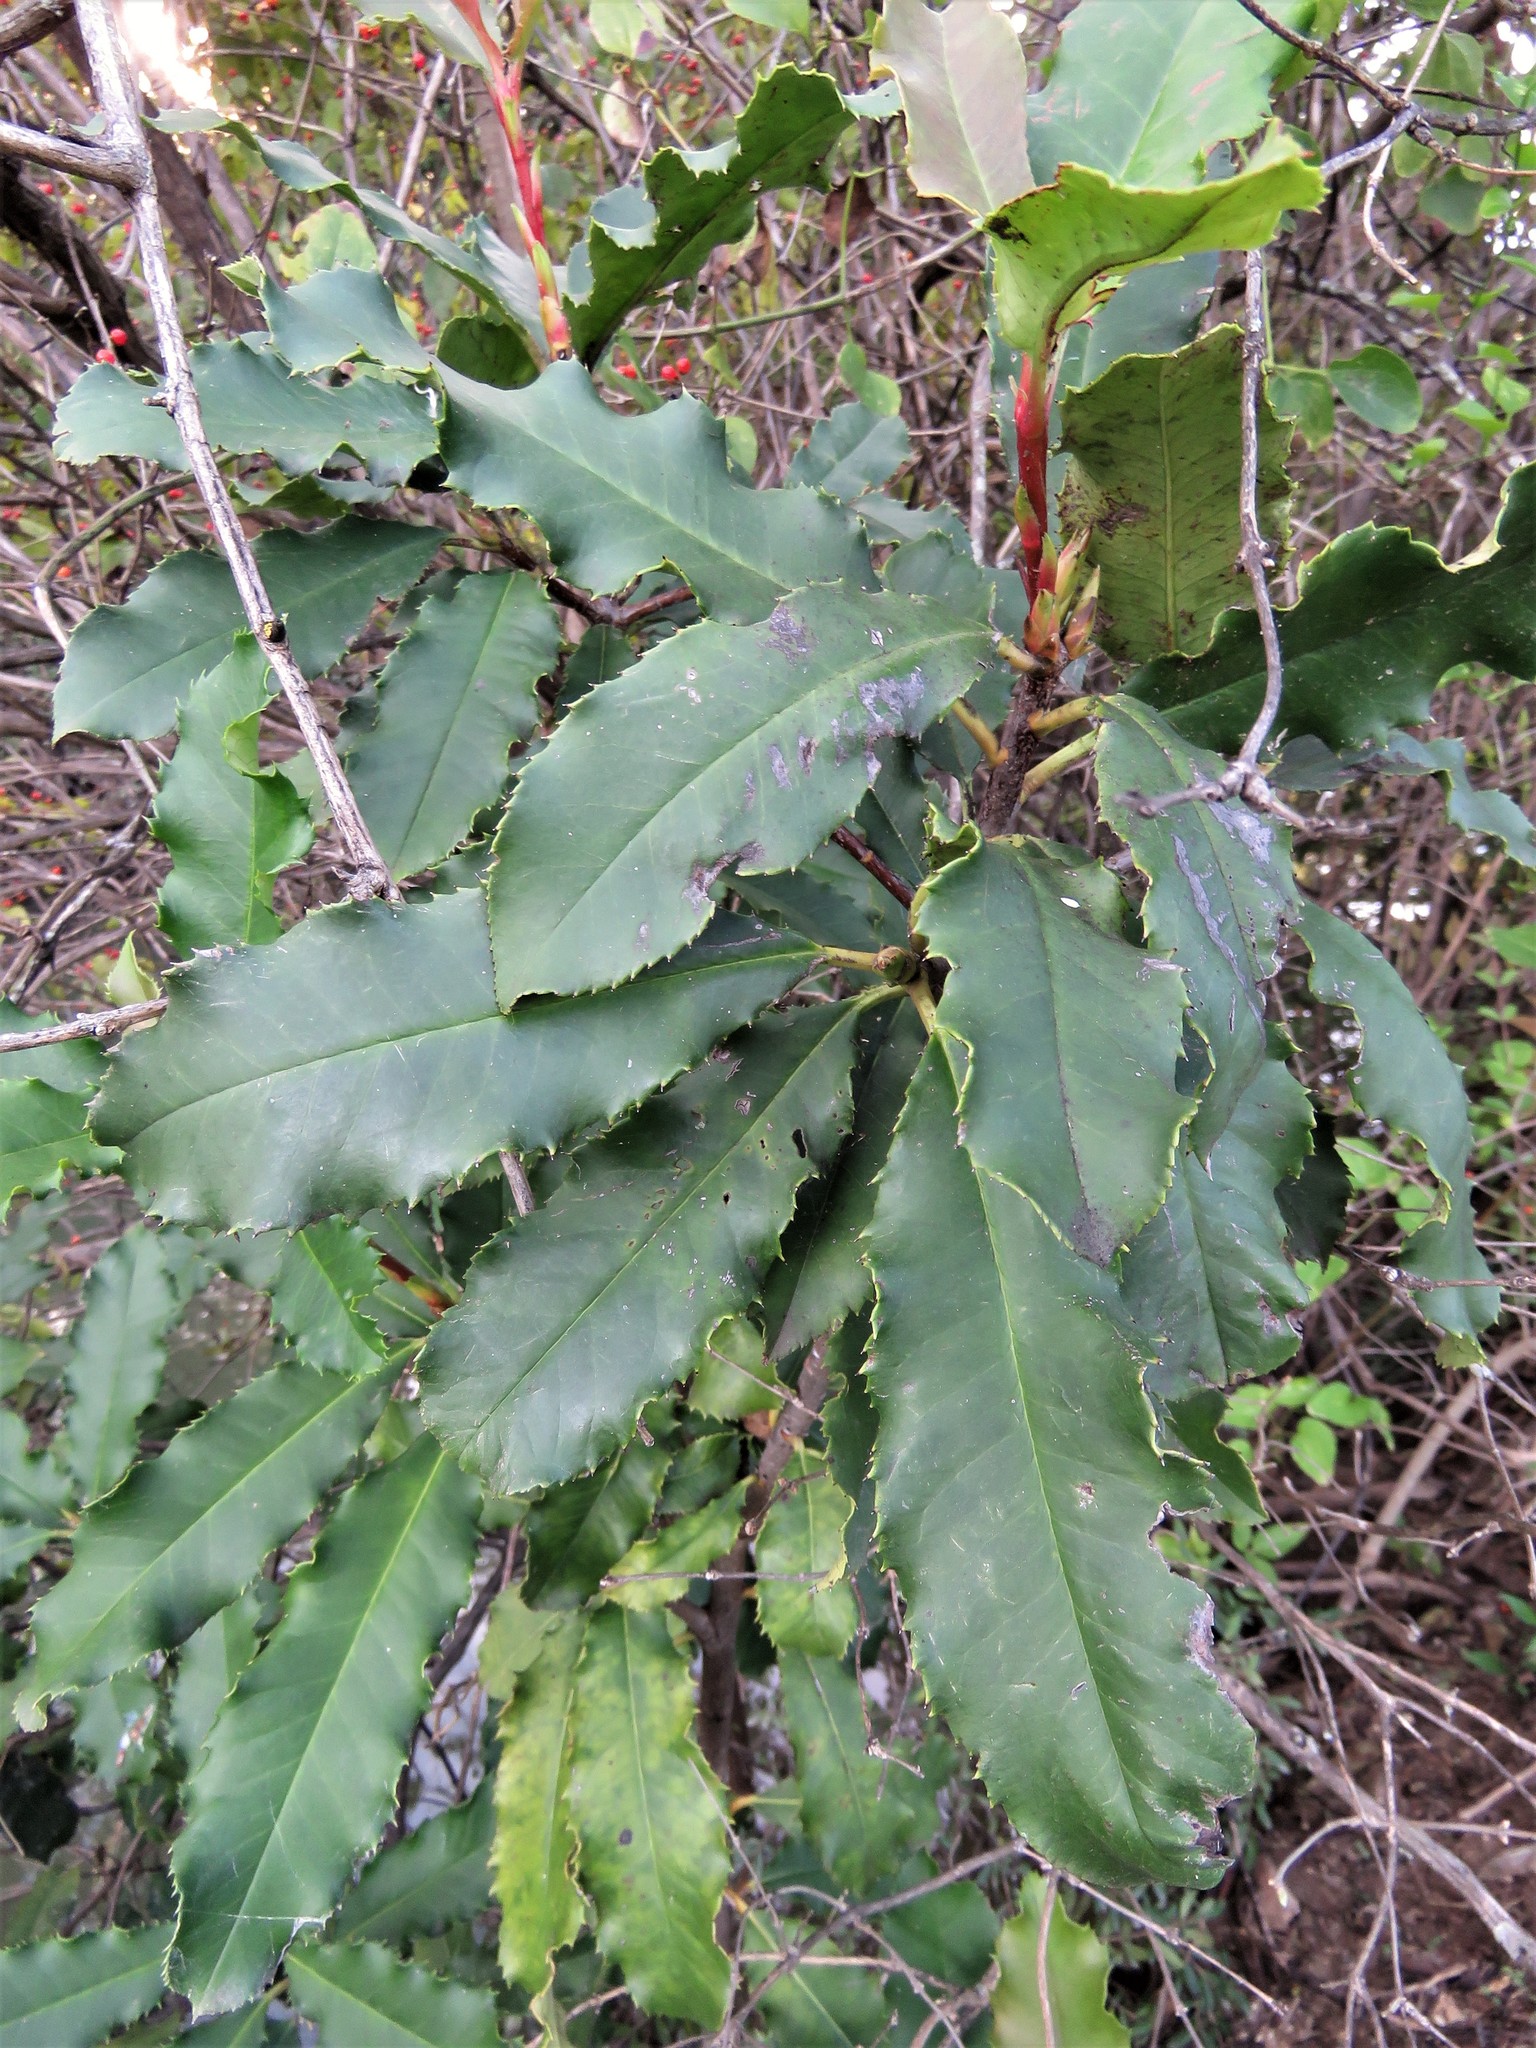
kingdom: Plantae
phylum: Tracheophyta
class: Magnoliopsida
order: Rosales
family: Rosaceae
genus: Photinia
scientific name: Photinia serratifolia
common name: Taiwanese photinia
